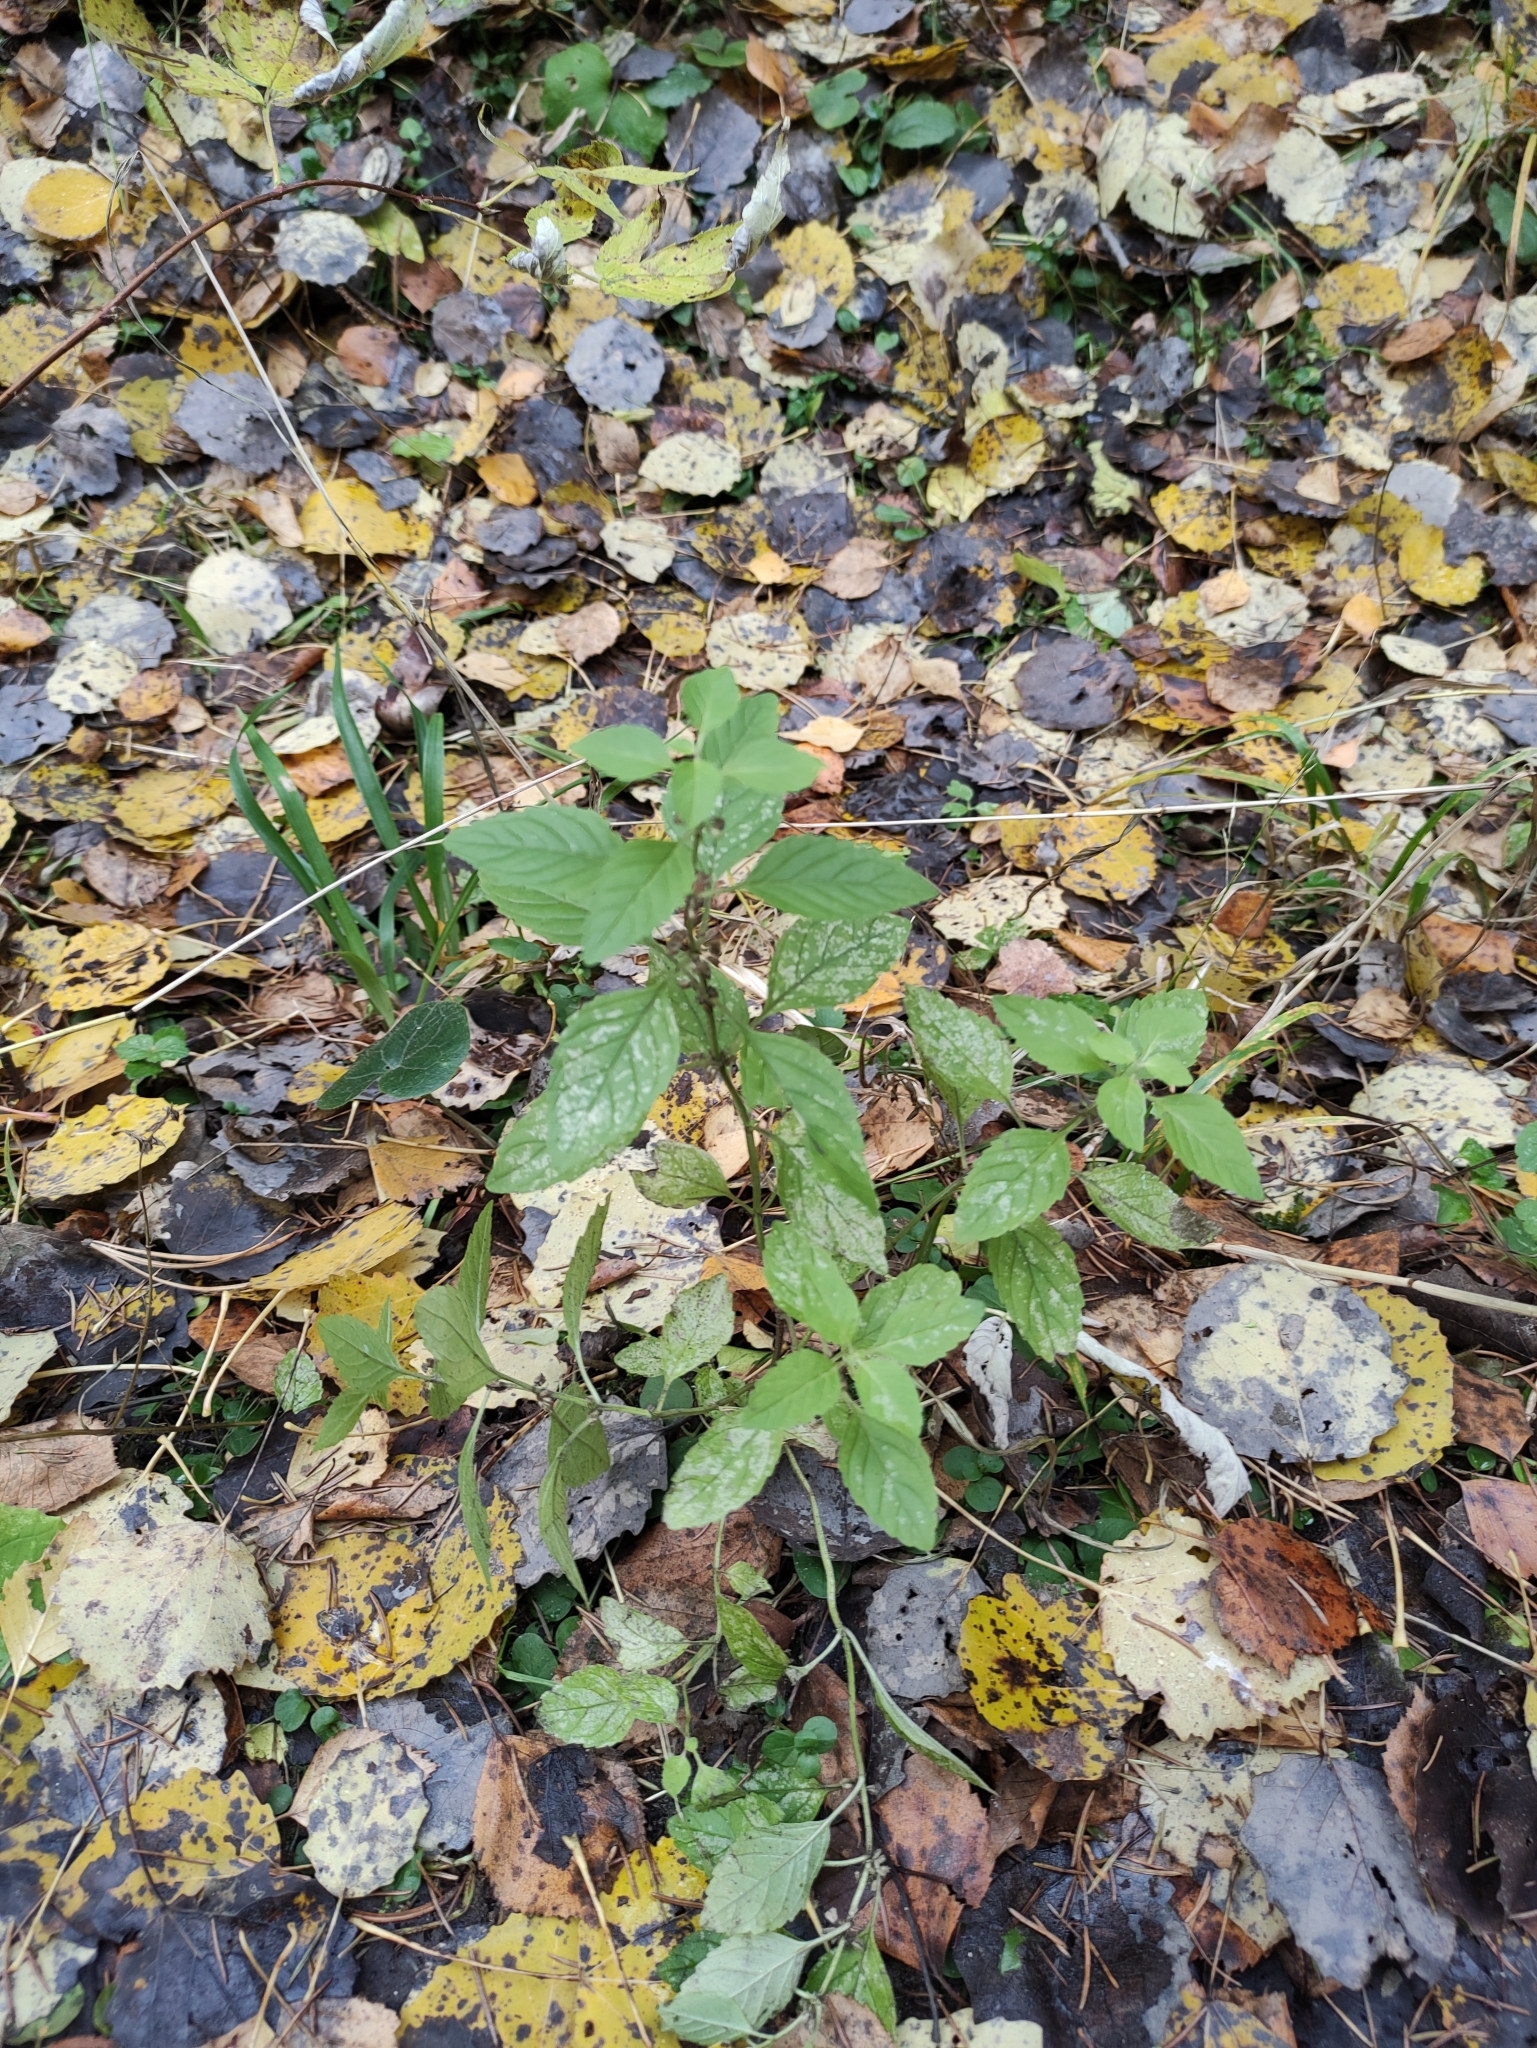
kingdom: Plantae
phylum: Tracheophyta
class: Magnoliopsida
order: Lamiales
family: Lamiaceae
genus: Mentha
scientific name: Mentha arvensis
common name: Corn mint
